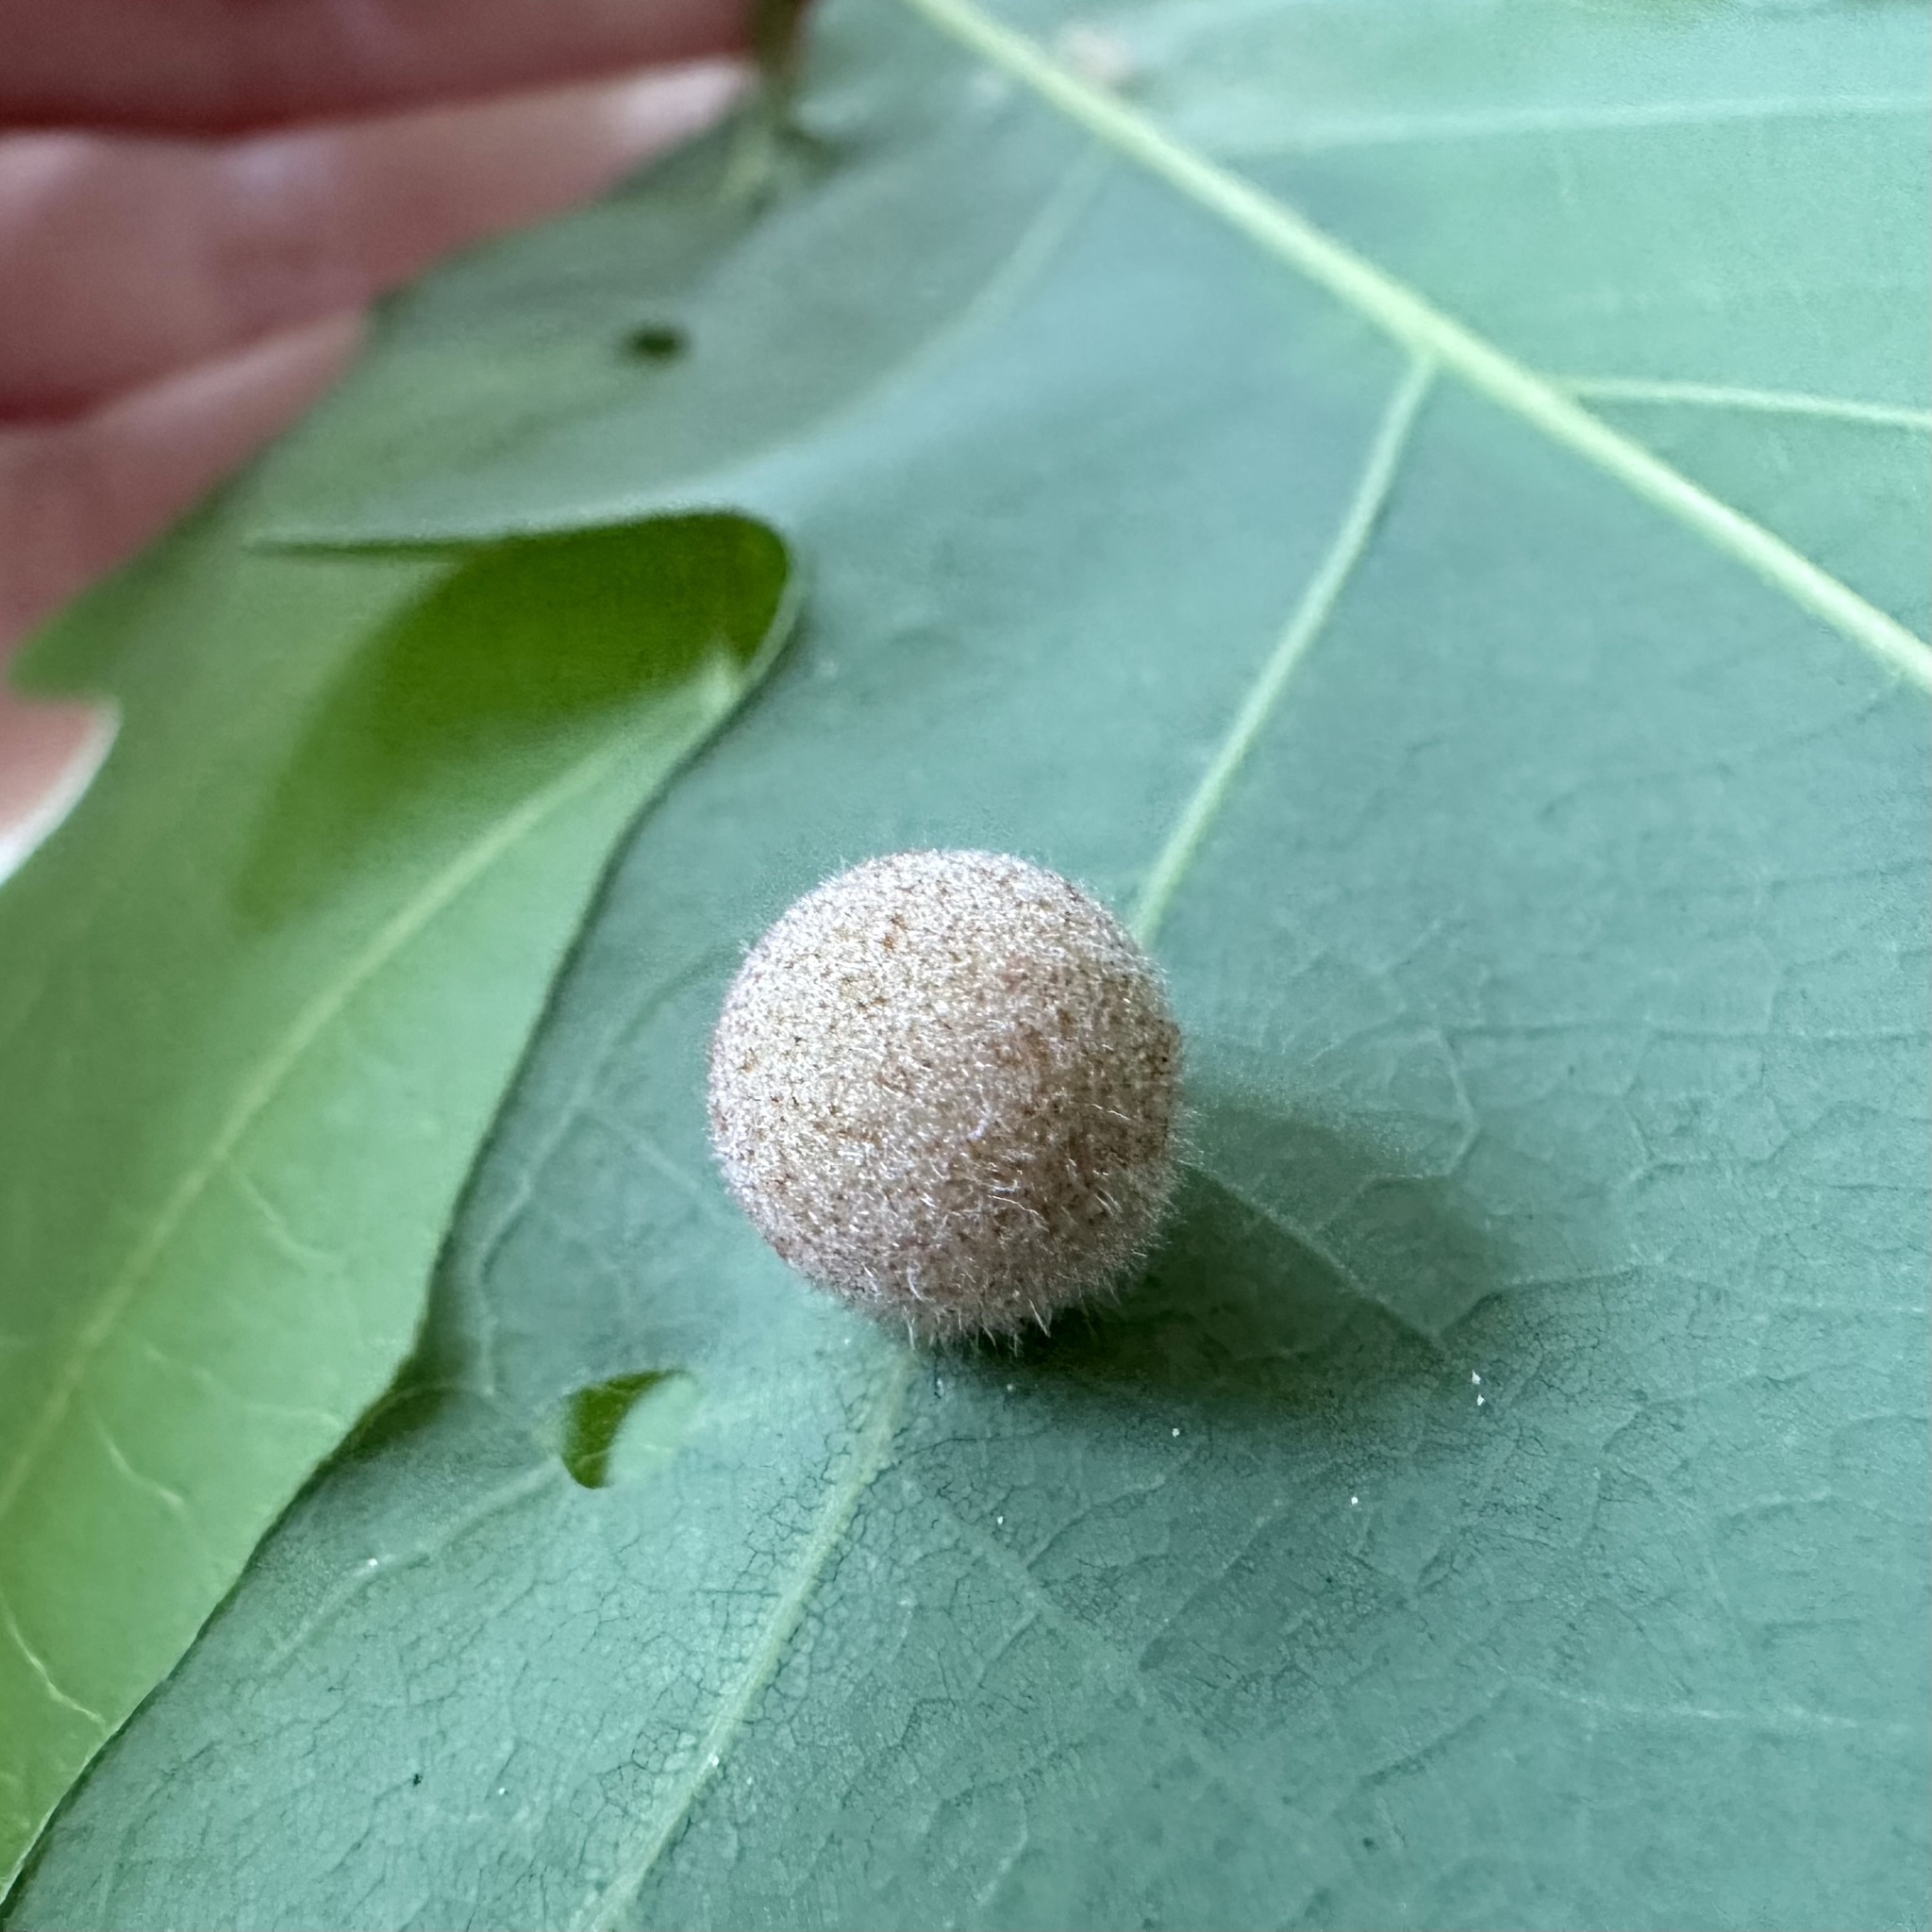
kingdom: Animalia
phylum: Arthropoda
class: Insecta
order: Hymenoptera
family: Cynipidae
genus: Philonix
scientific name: Philonix fulvicollis
